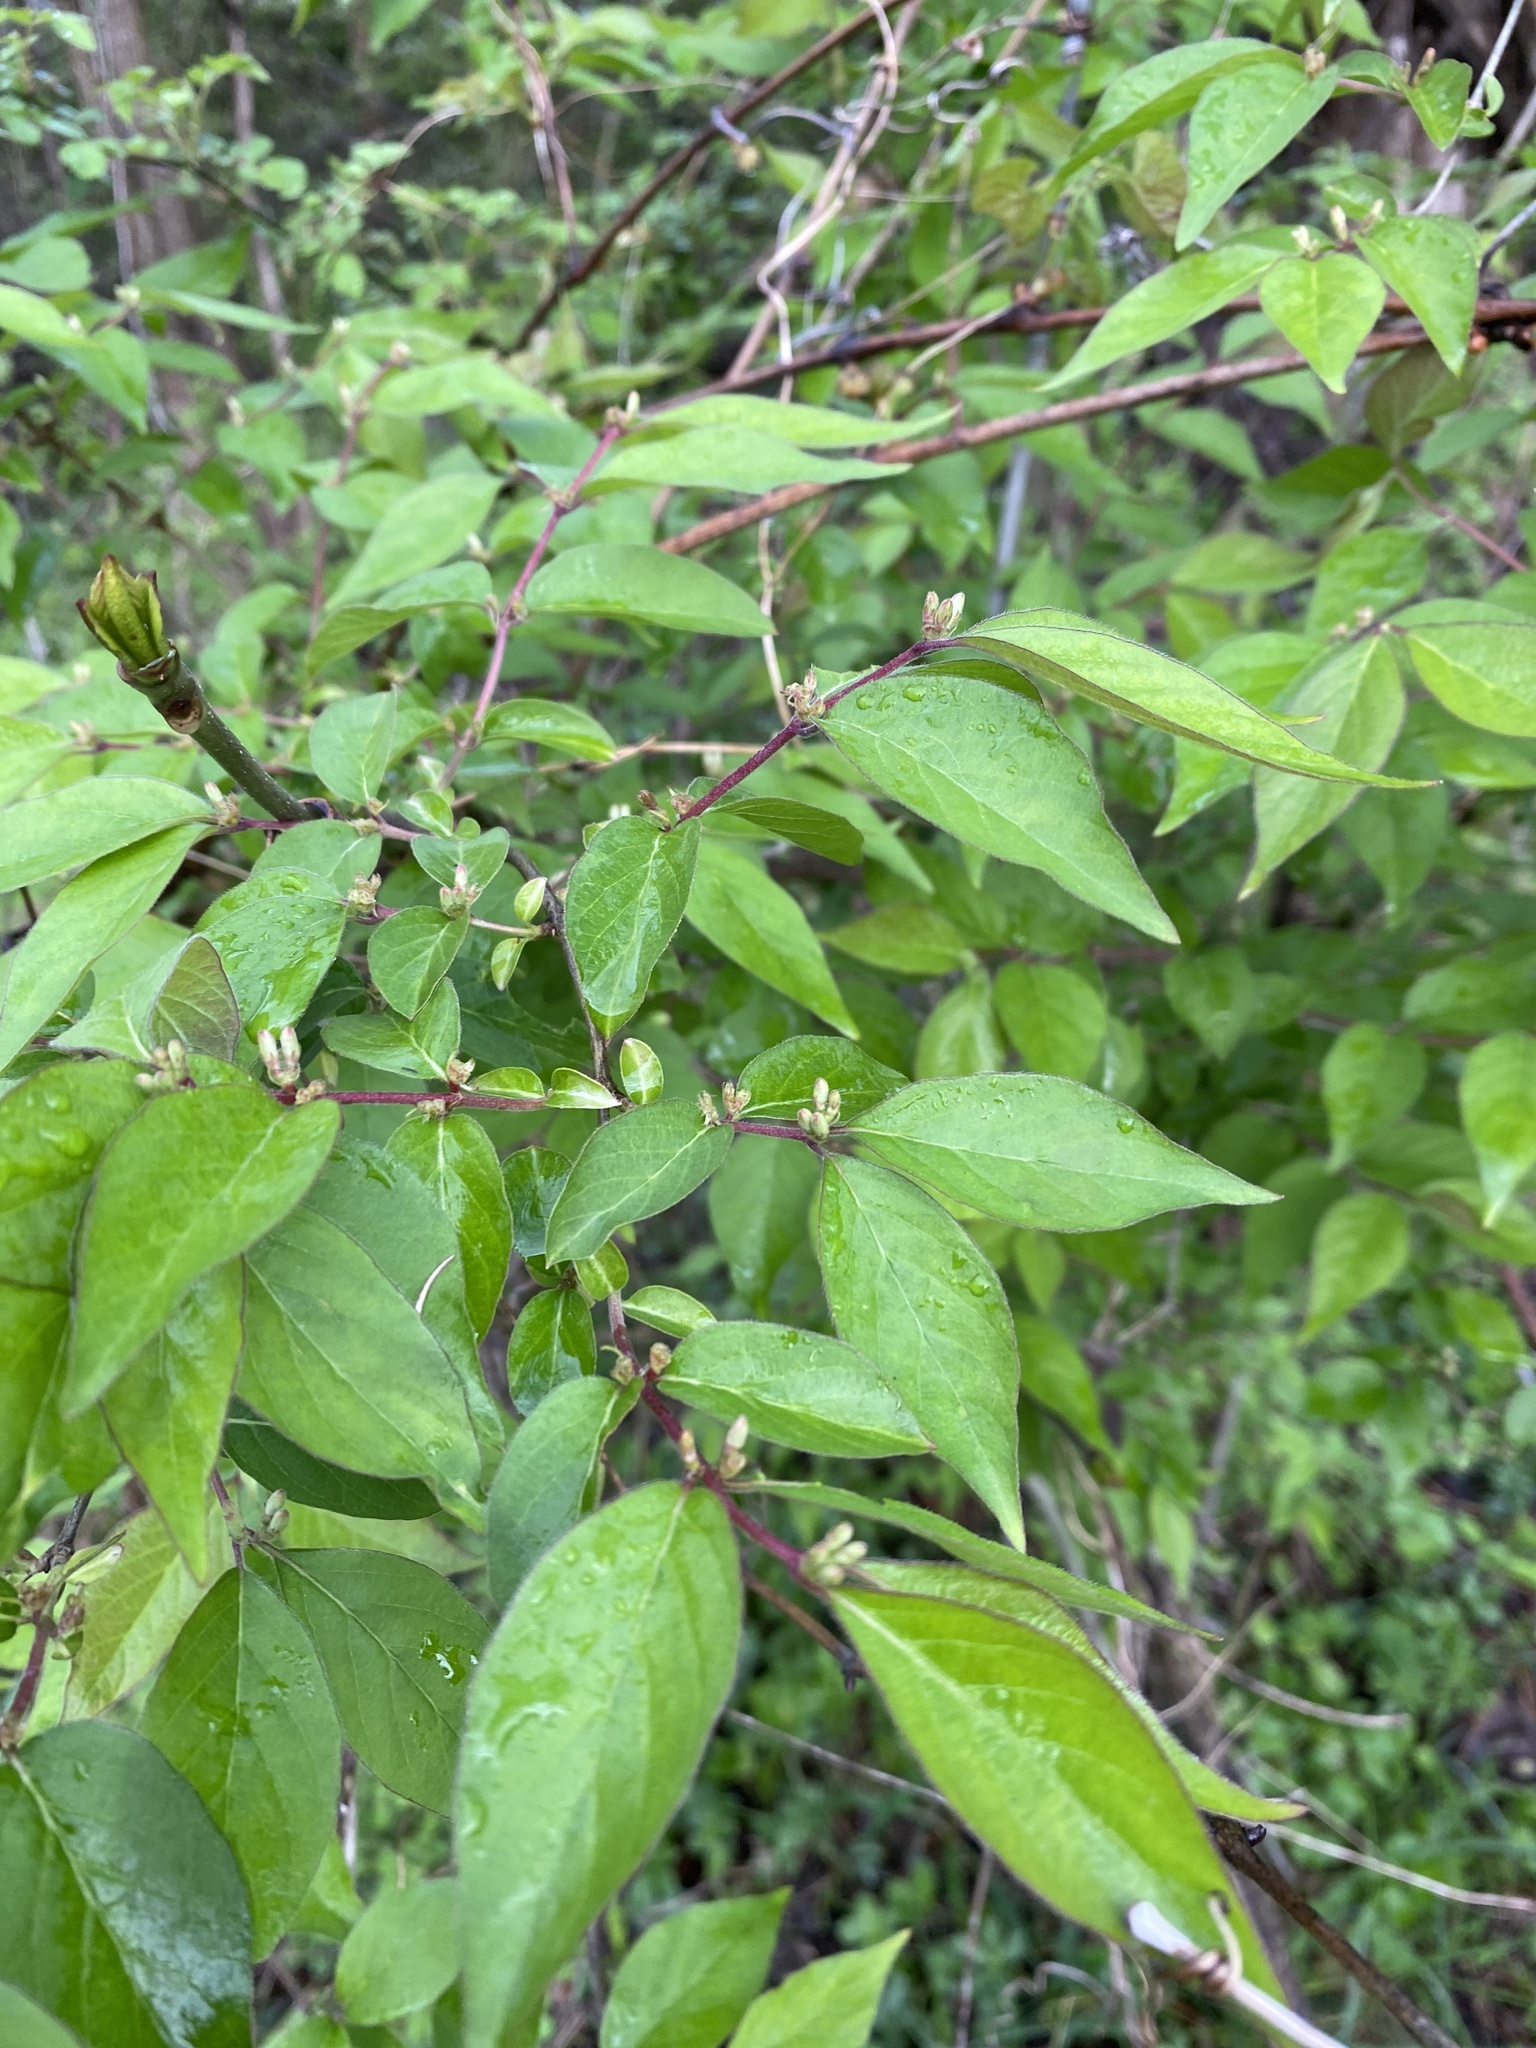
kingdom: Plantae
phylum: Tracheophyta
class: Magnoliopsida
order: Dipsacales
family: Caprifoliaceae
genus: Lonicera
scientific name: Lonicera maackii
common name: Amur honeysuckle
